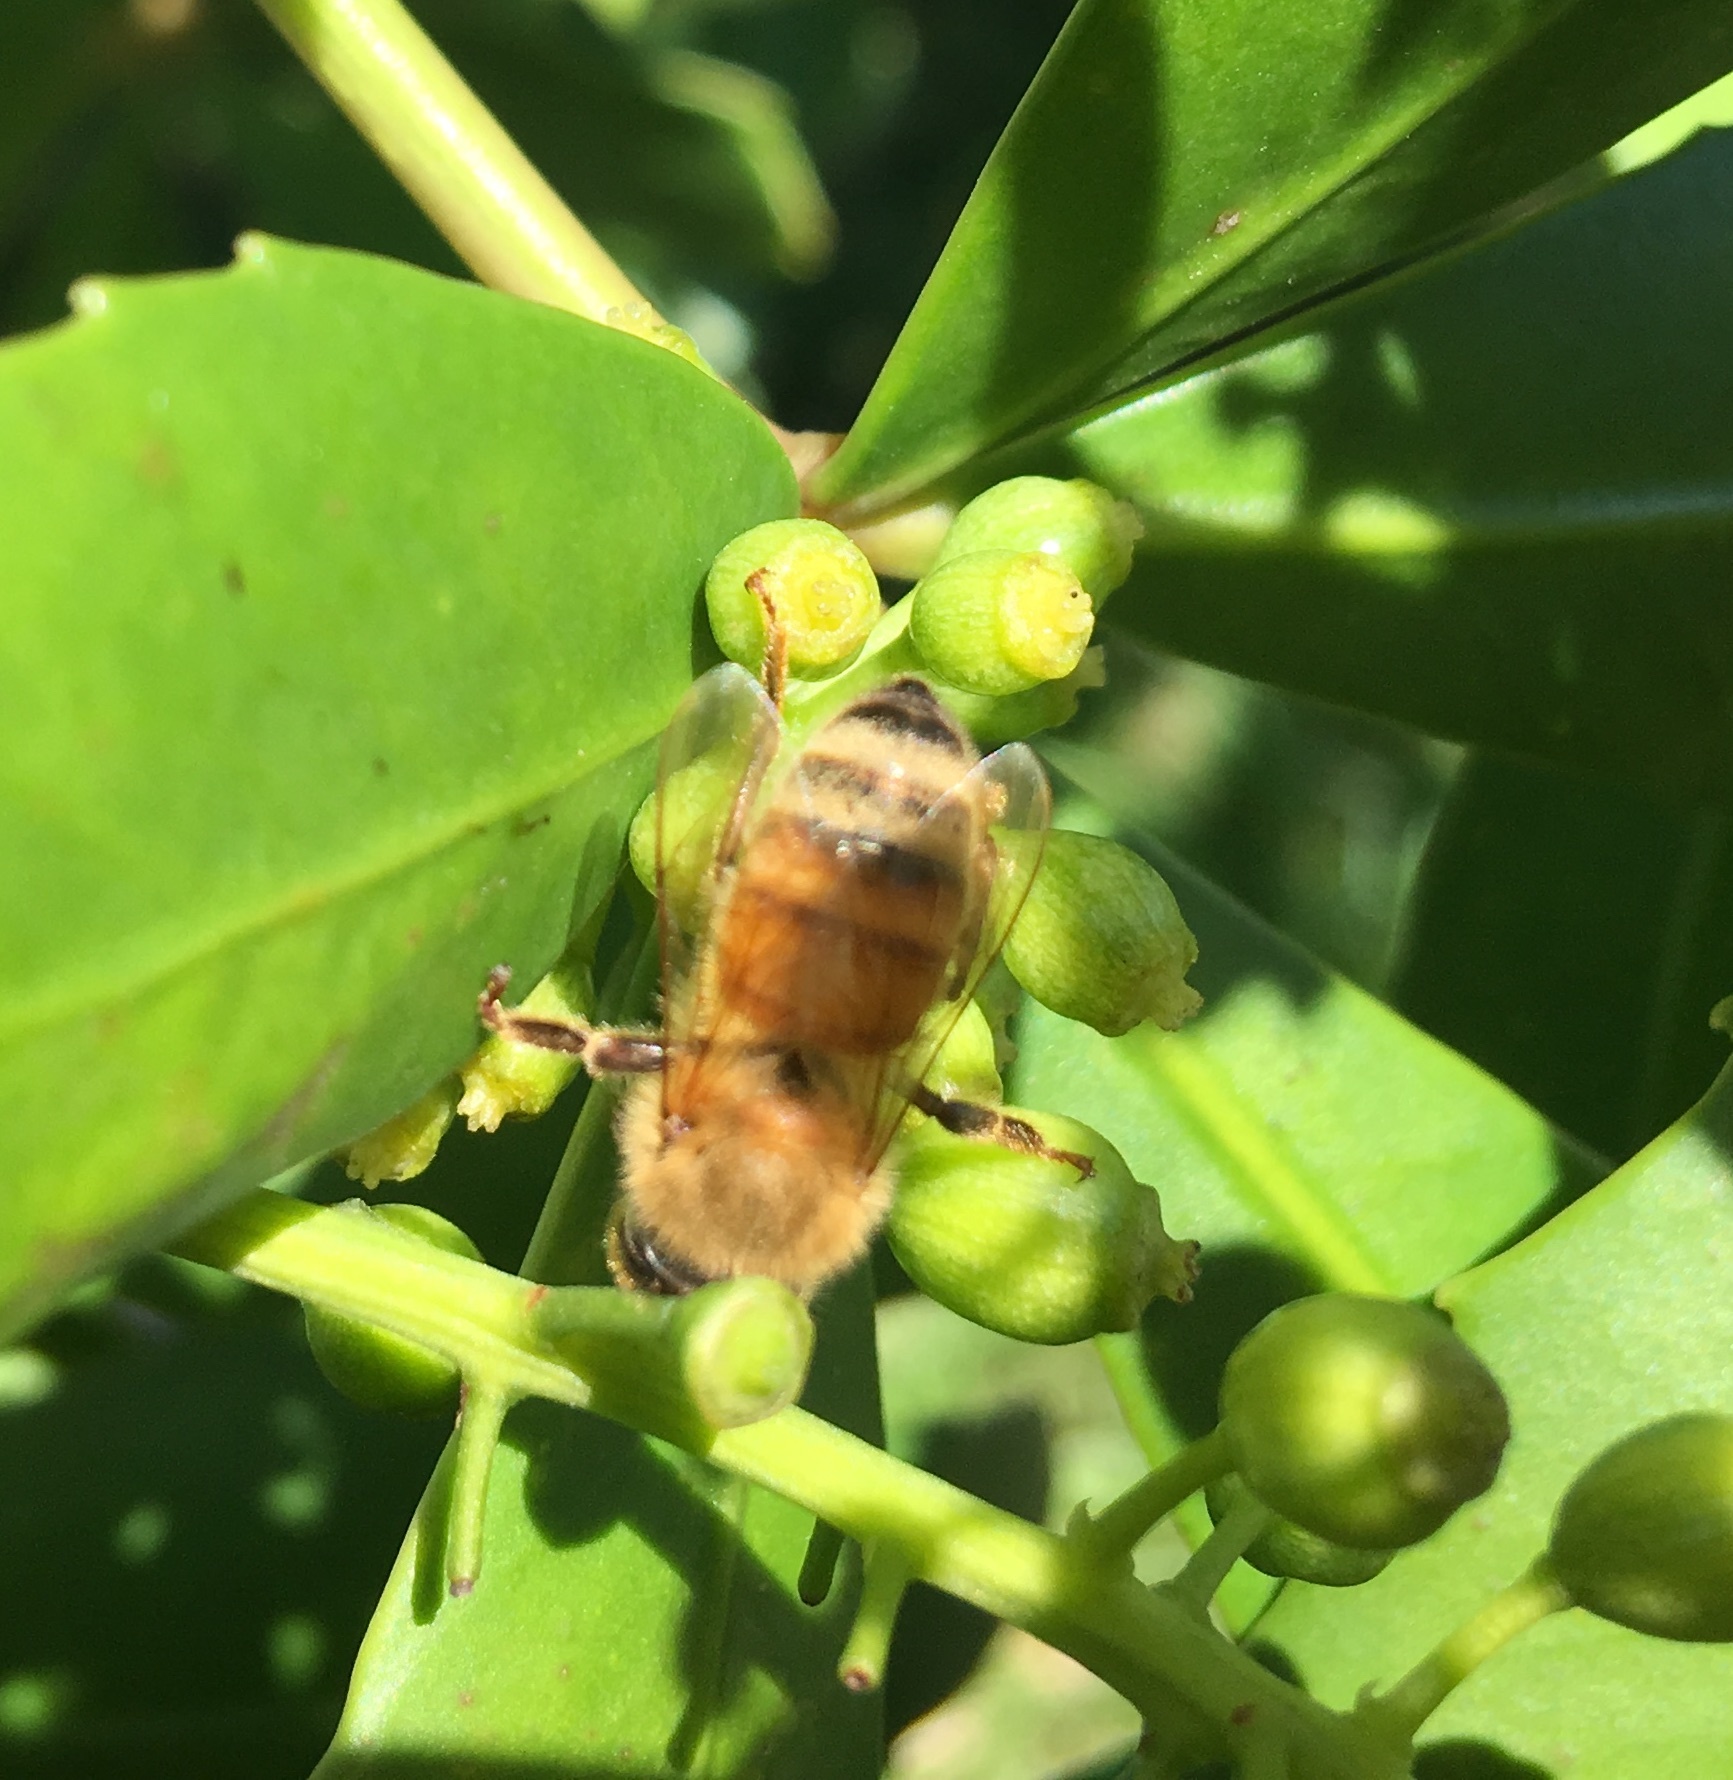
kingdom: Animalia
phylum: Arthropoda
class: Insecta
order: Hymenoptera
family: Apidae
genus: Apis
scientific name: Apis mellifera
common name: Honey bee
